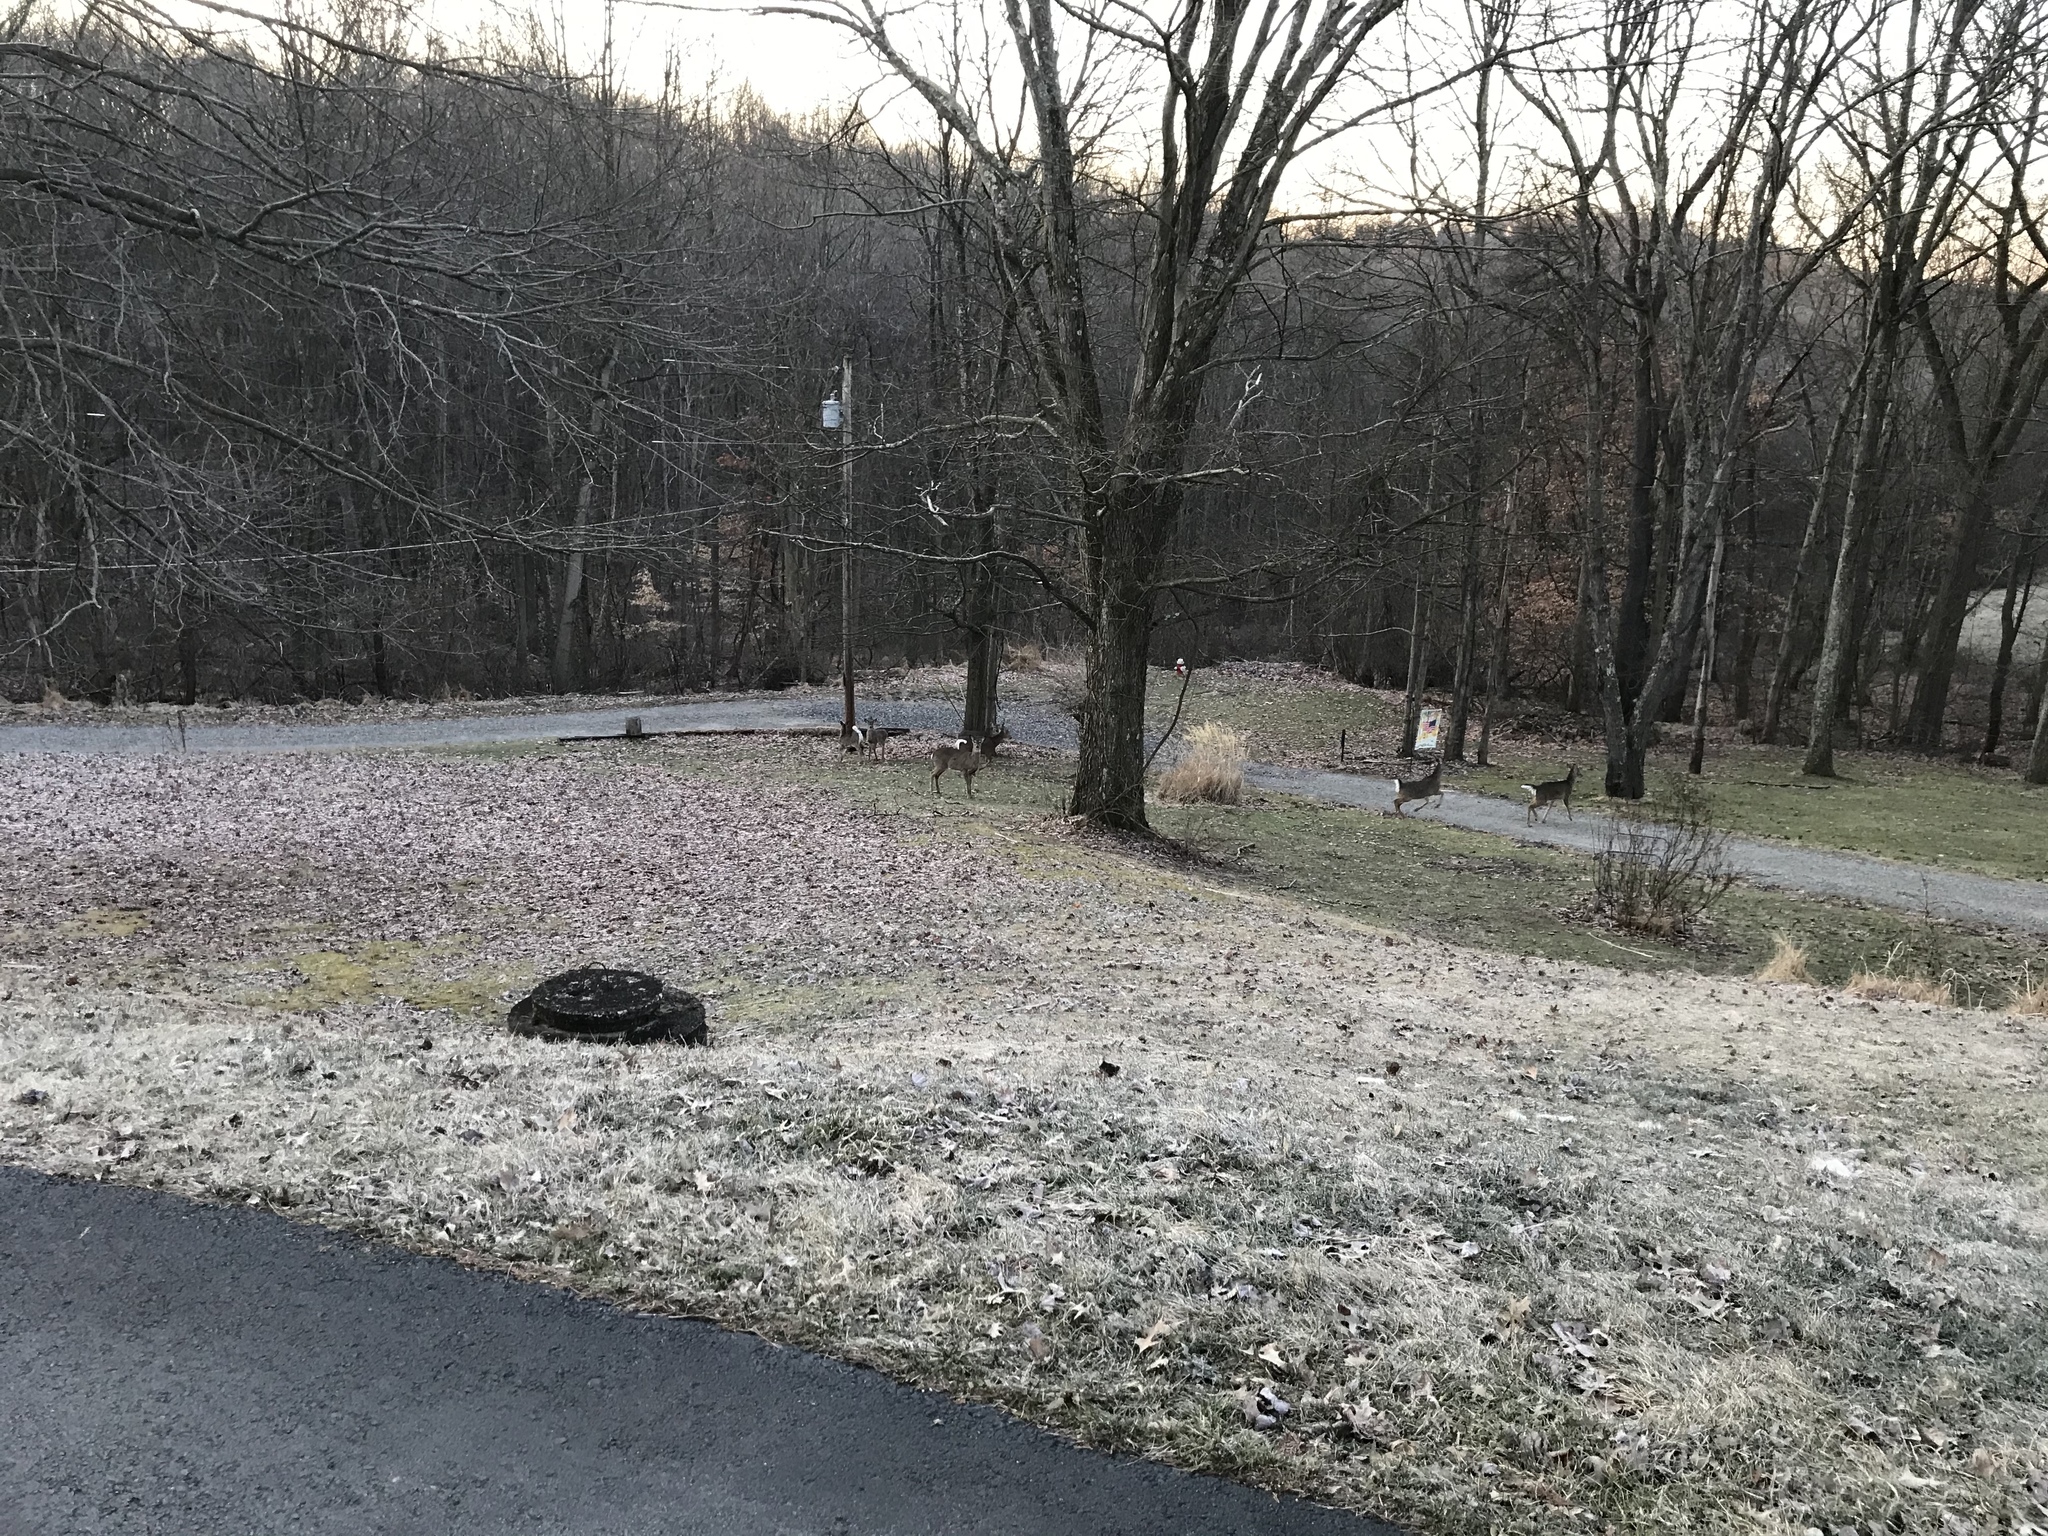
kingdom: Animalia
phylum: Chordata
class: Mammalia
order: Artiodactyla
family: Cervidae
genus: Odocoileus
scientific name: Odocoileus virginianus
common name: White-tailed deer
